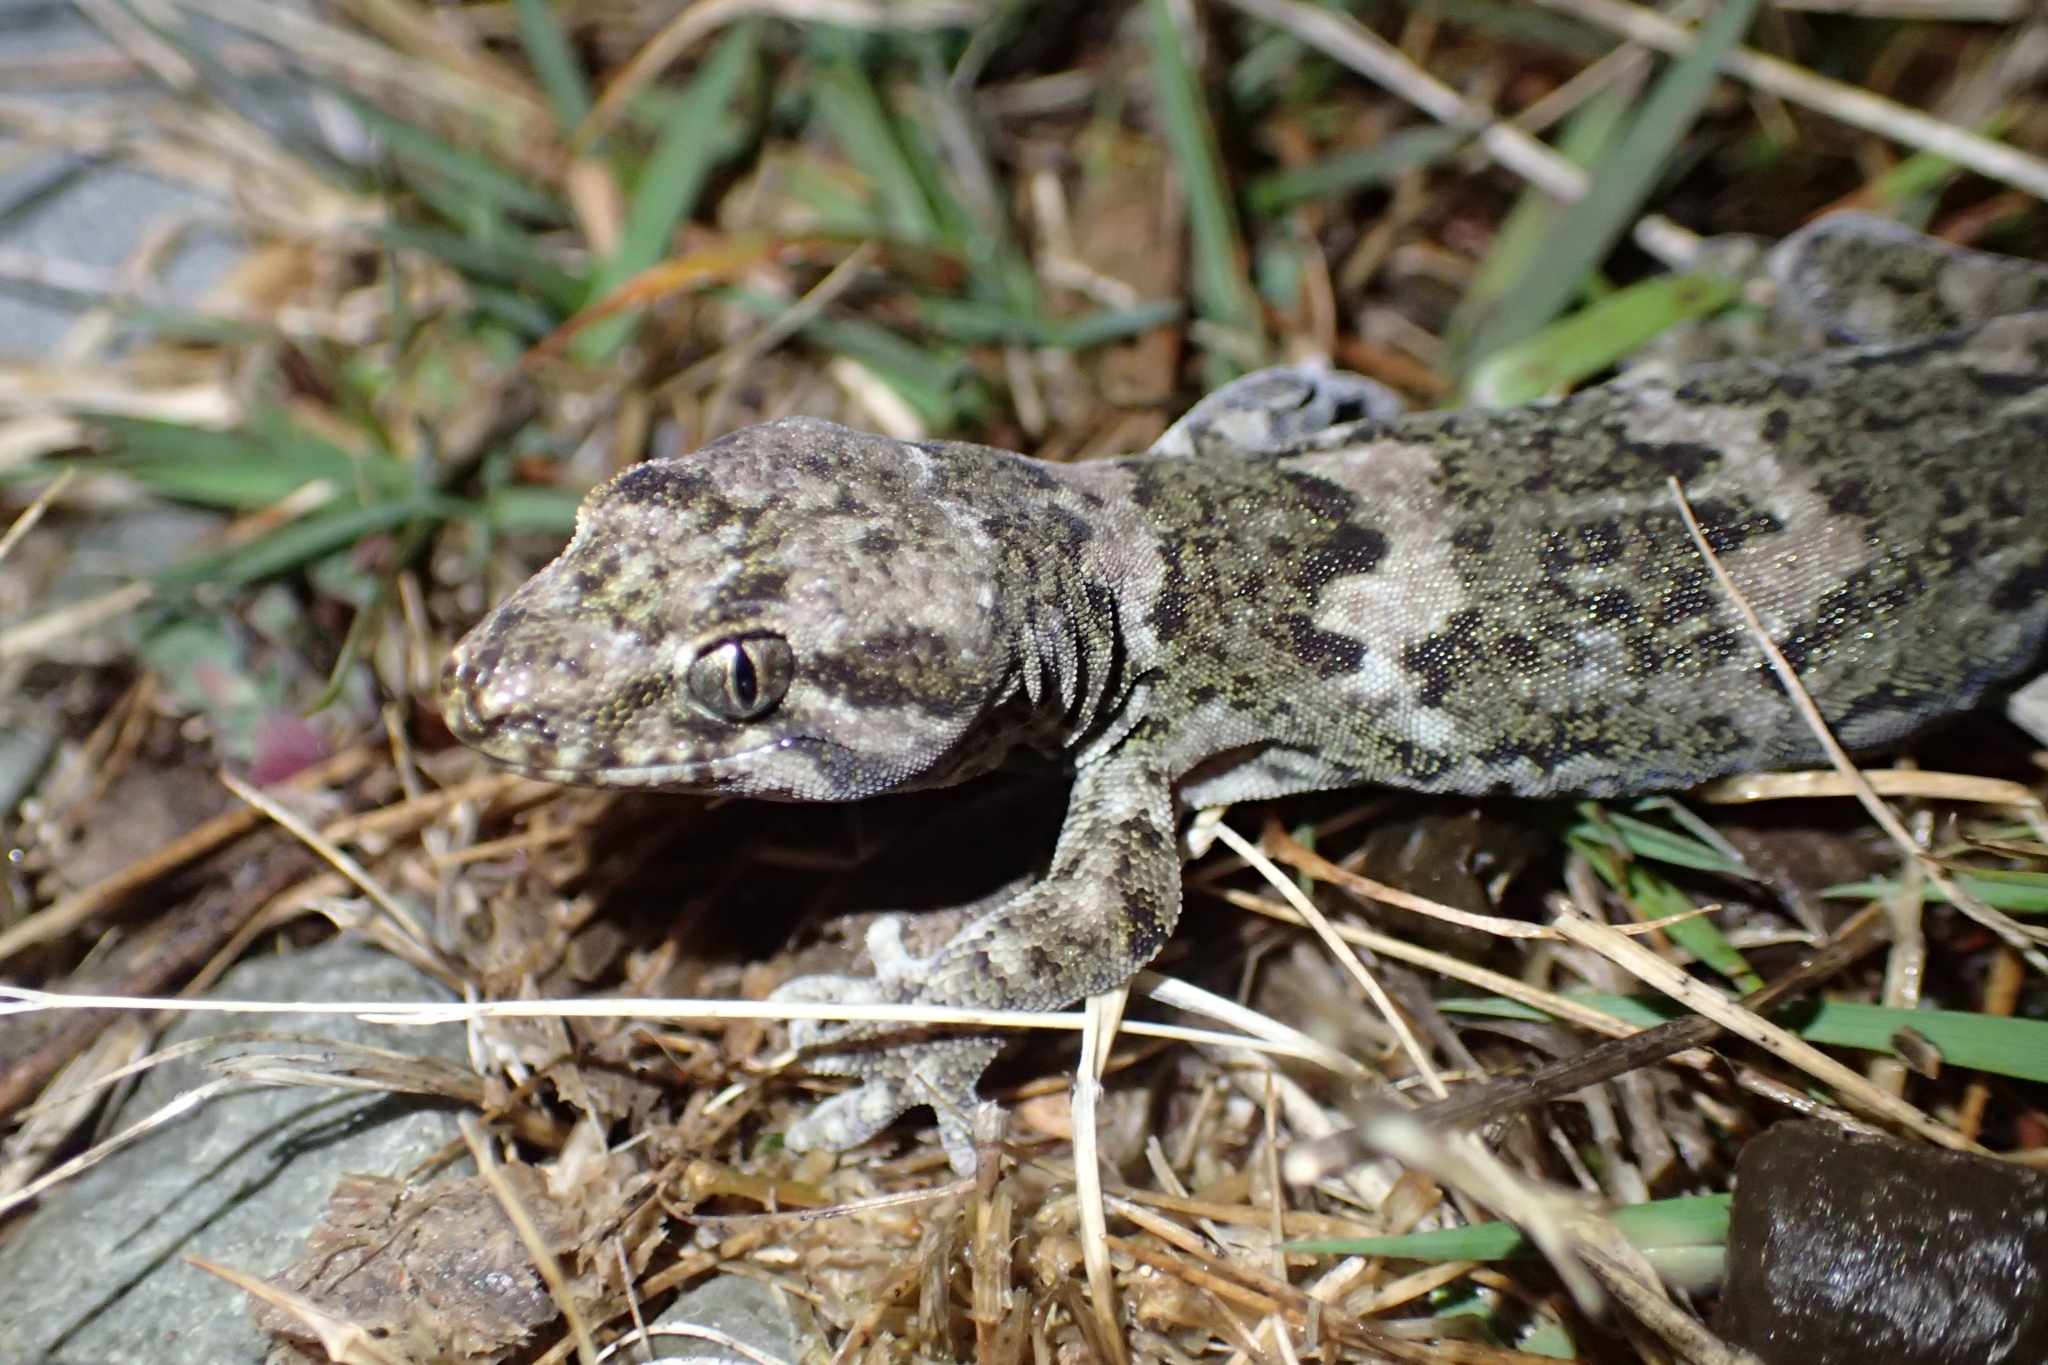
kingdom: Animalia
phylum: Chordata
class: Squamata
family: Diplodactylidae
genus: Woodworthia
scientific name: Woodworthia
